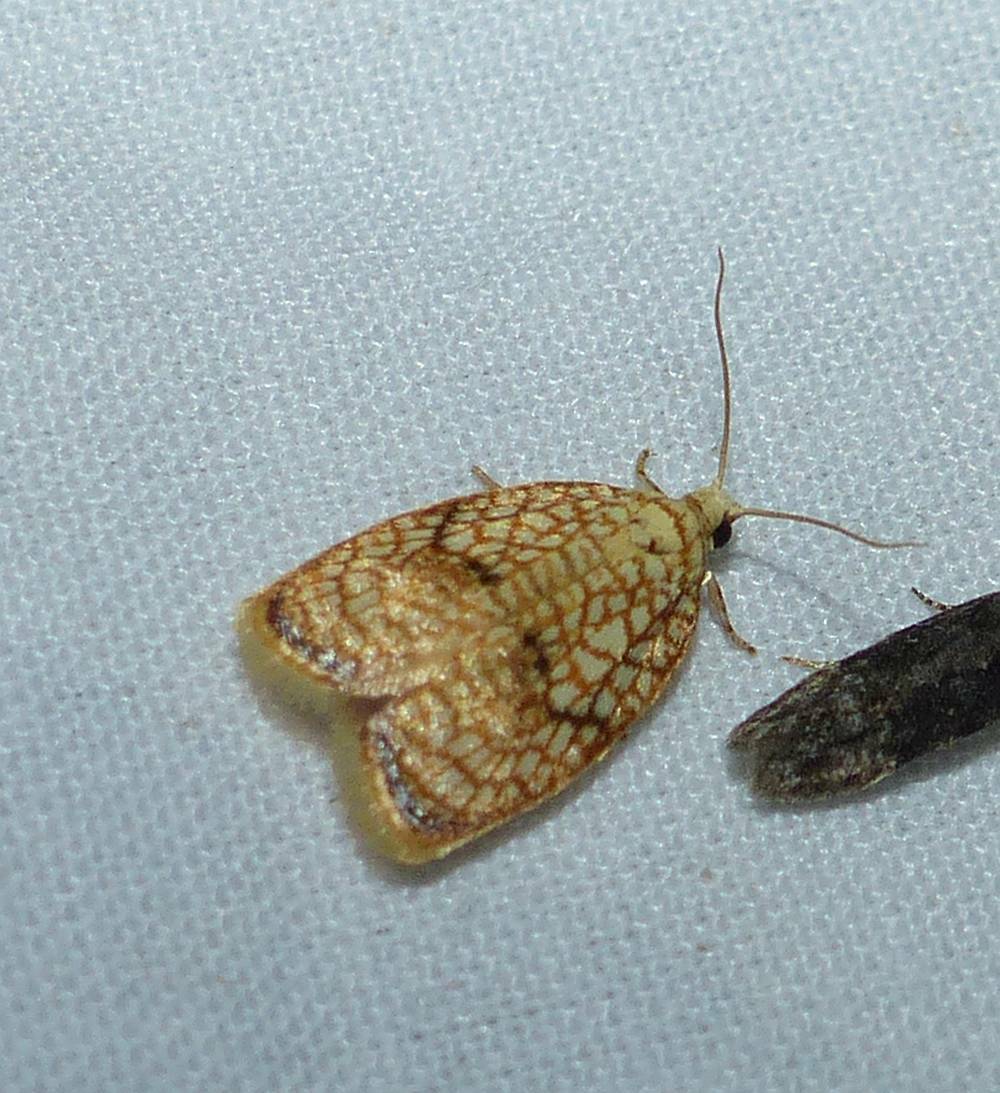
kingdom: Animalia
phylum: Arthropoda
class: Insecta
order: Lepidoptera
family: Tortricidae
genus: Acleris
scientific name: Acleris forsskaleana
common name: Maple button
